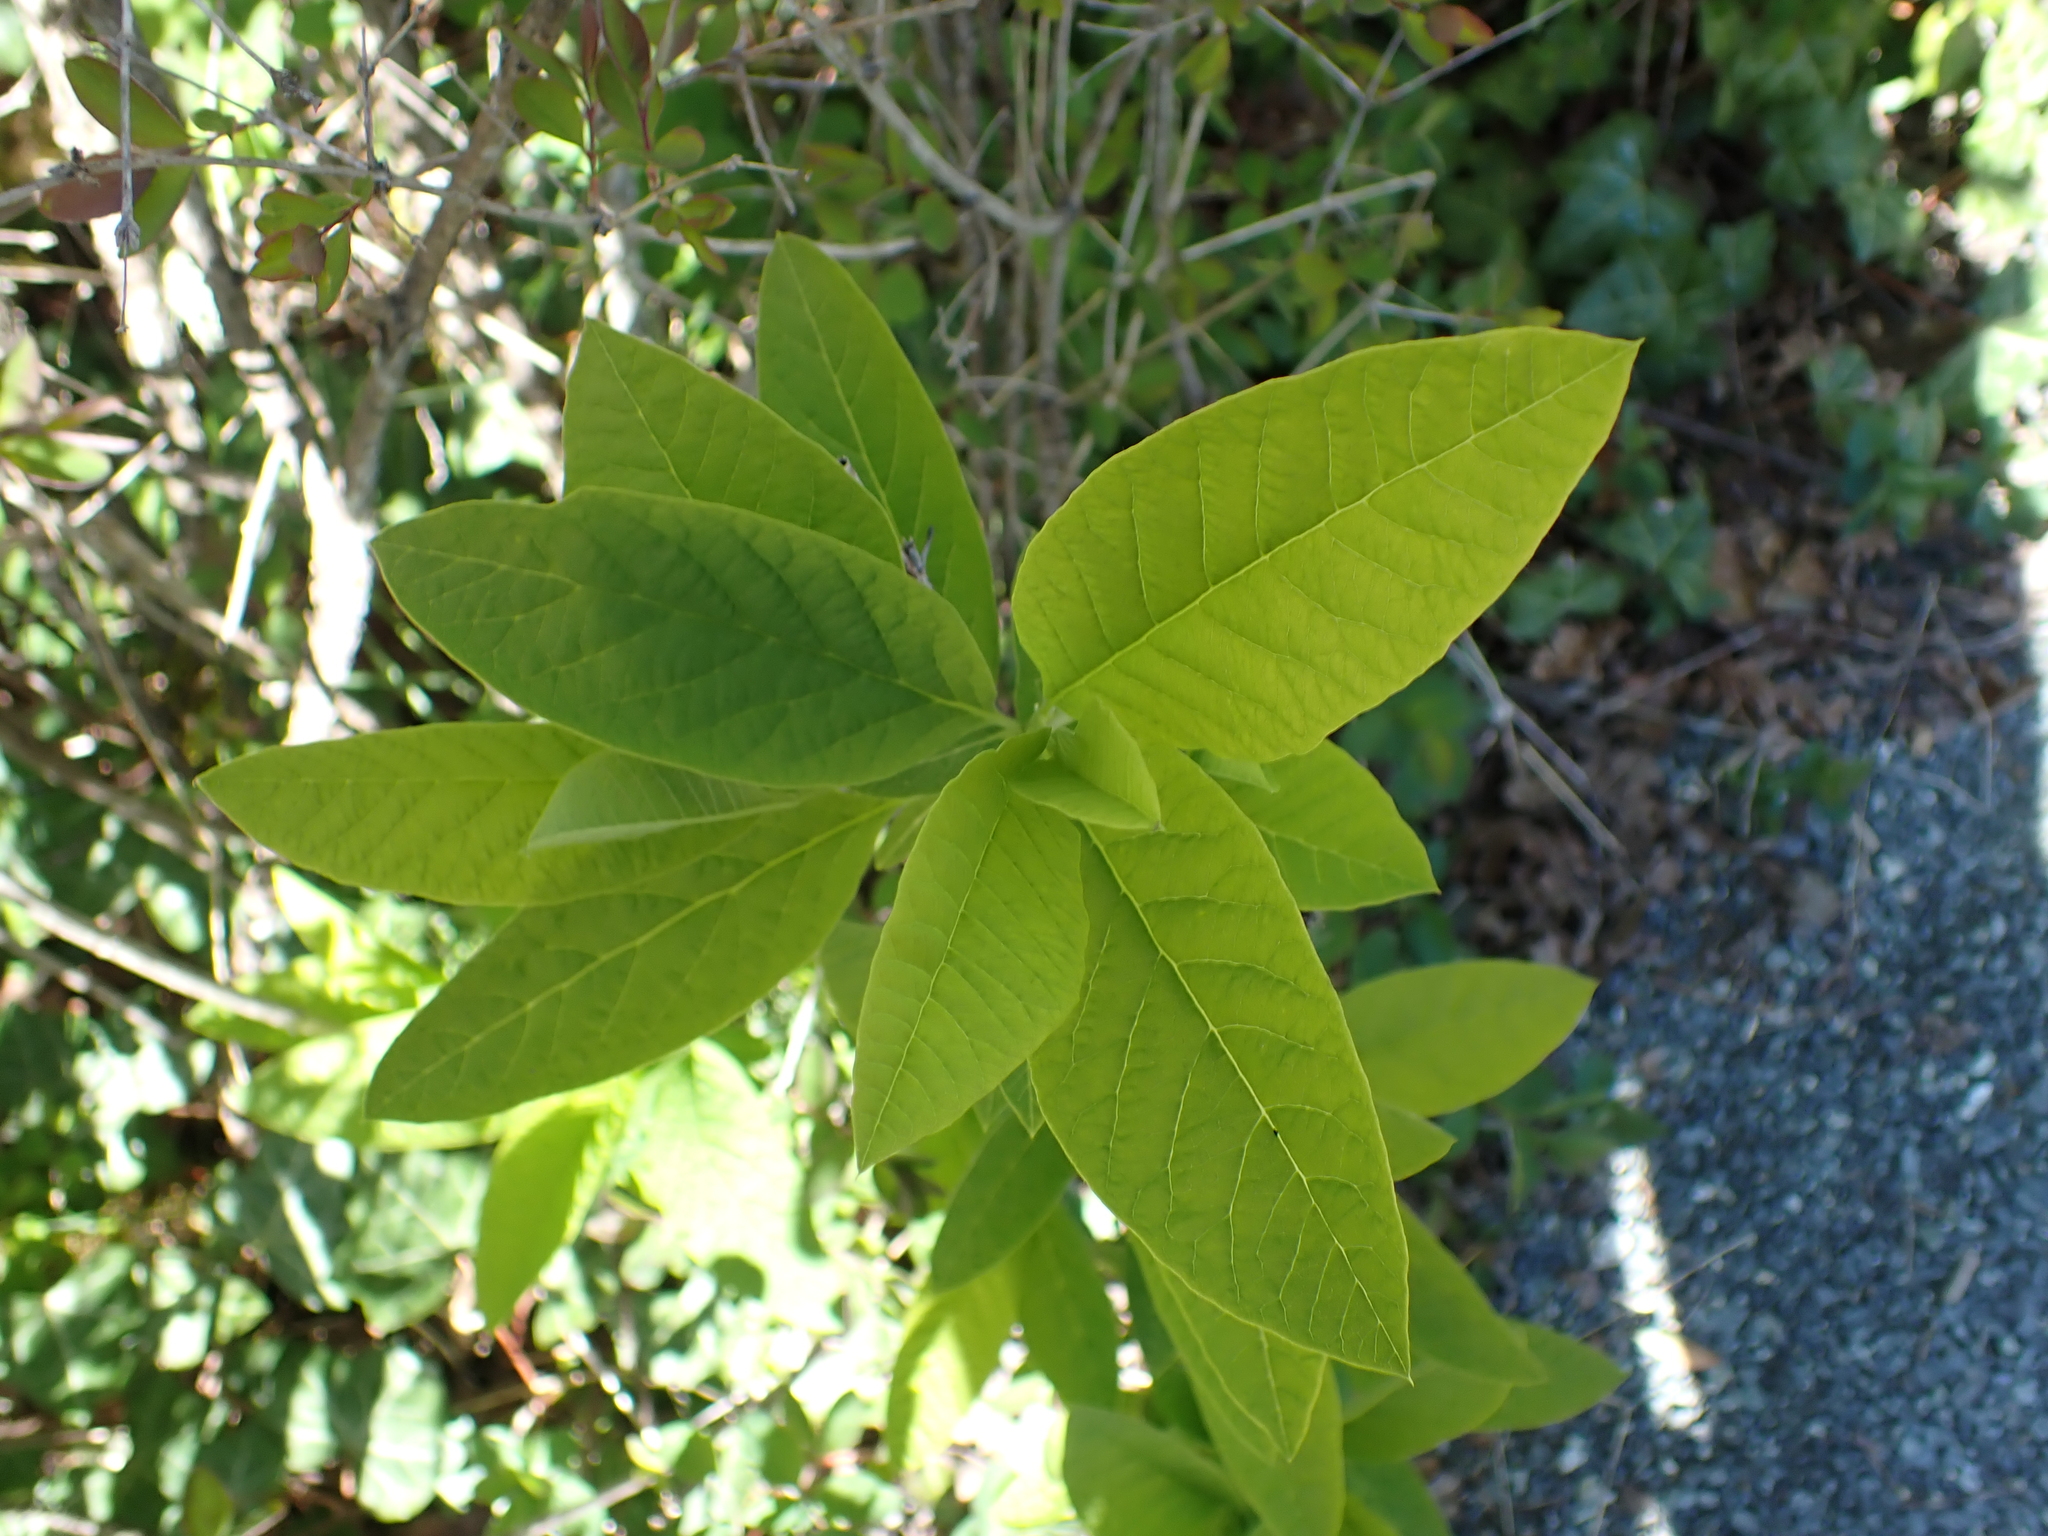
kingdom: Plantae
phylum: Tracheophyta
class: Magnoliopsida
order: Rosales
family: Rosaceae
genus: Oemleria
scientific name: Oemleria cerasiformis
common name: Osoberry
